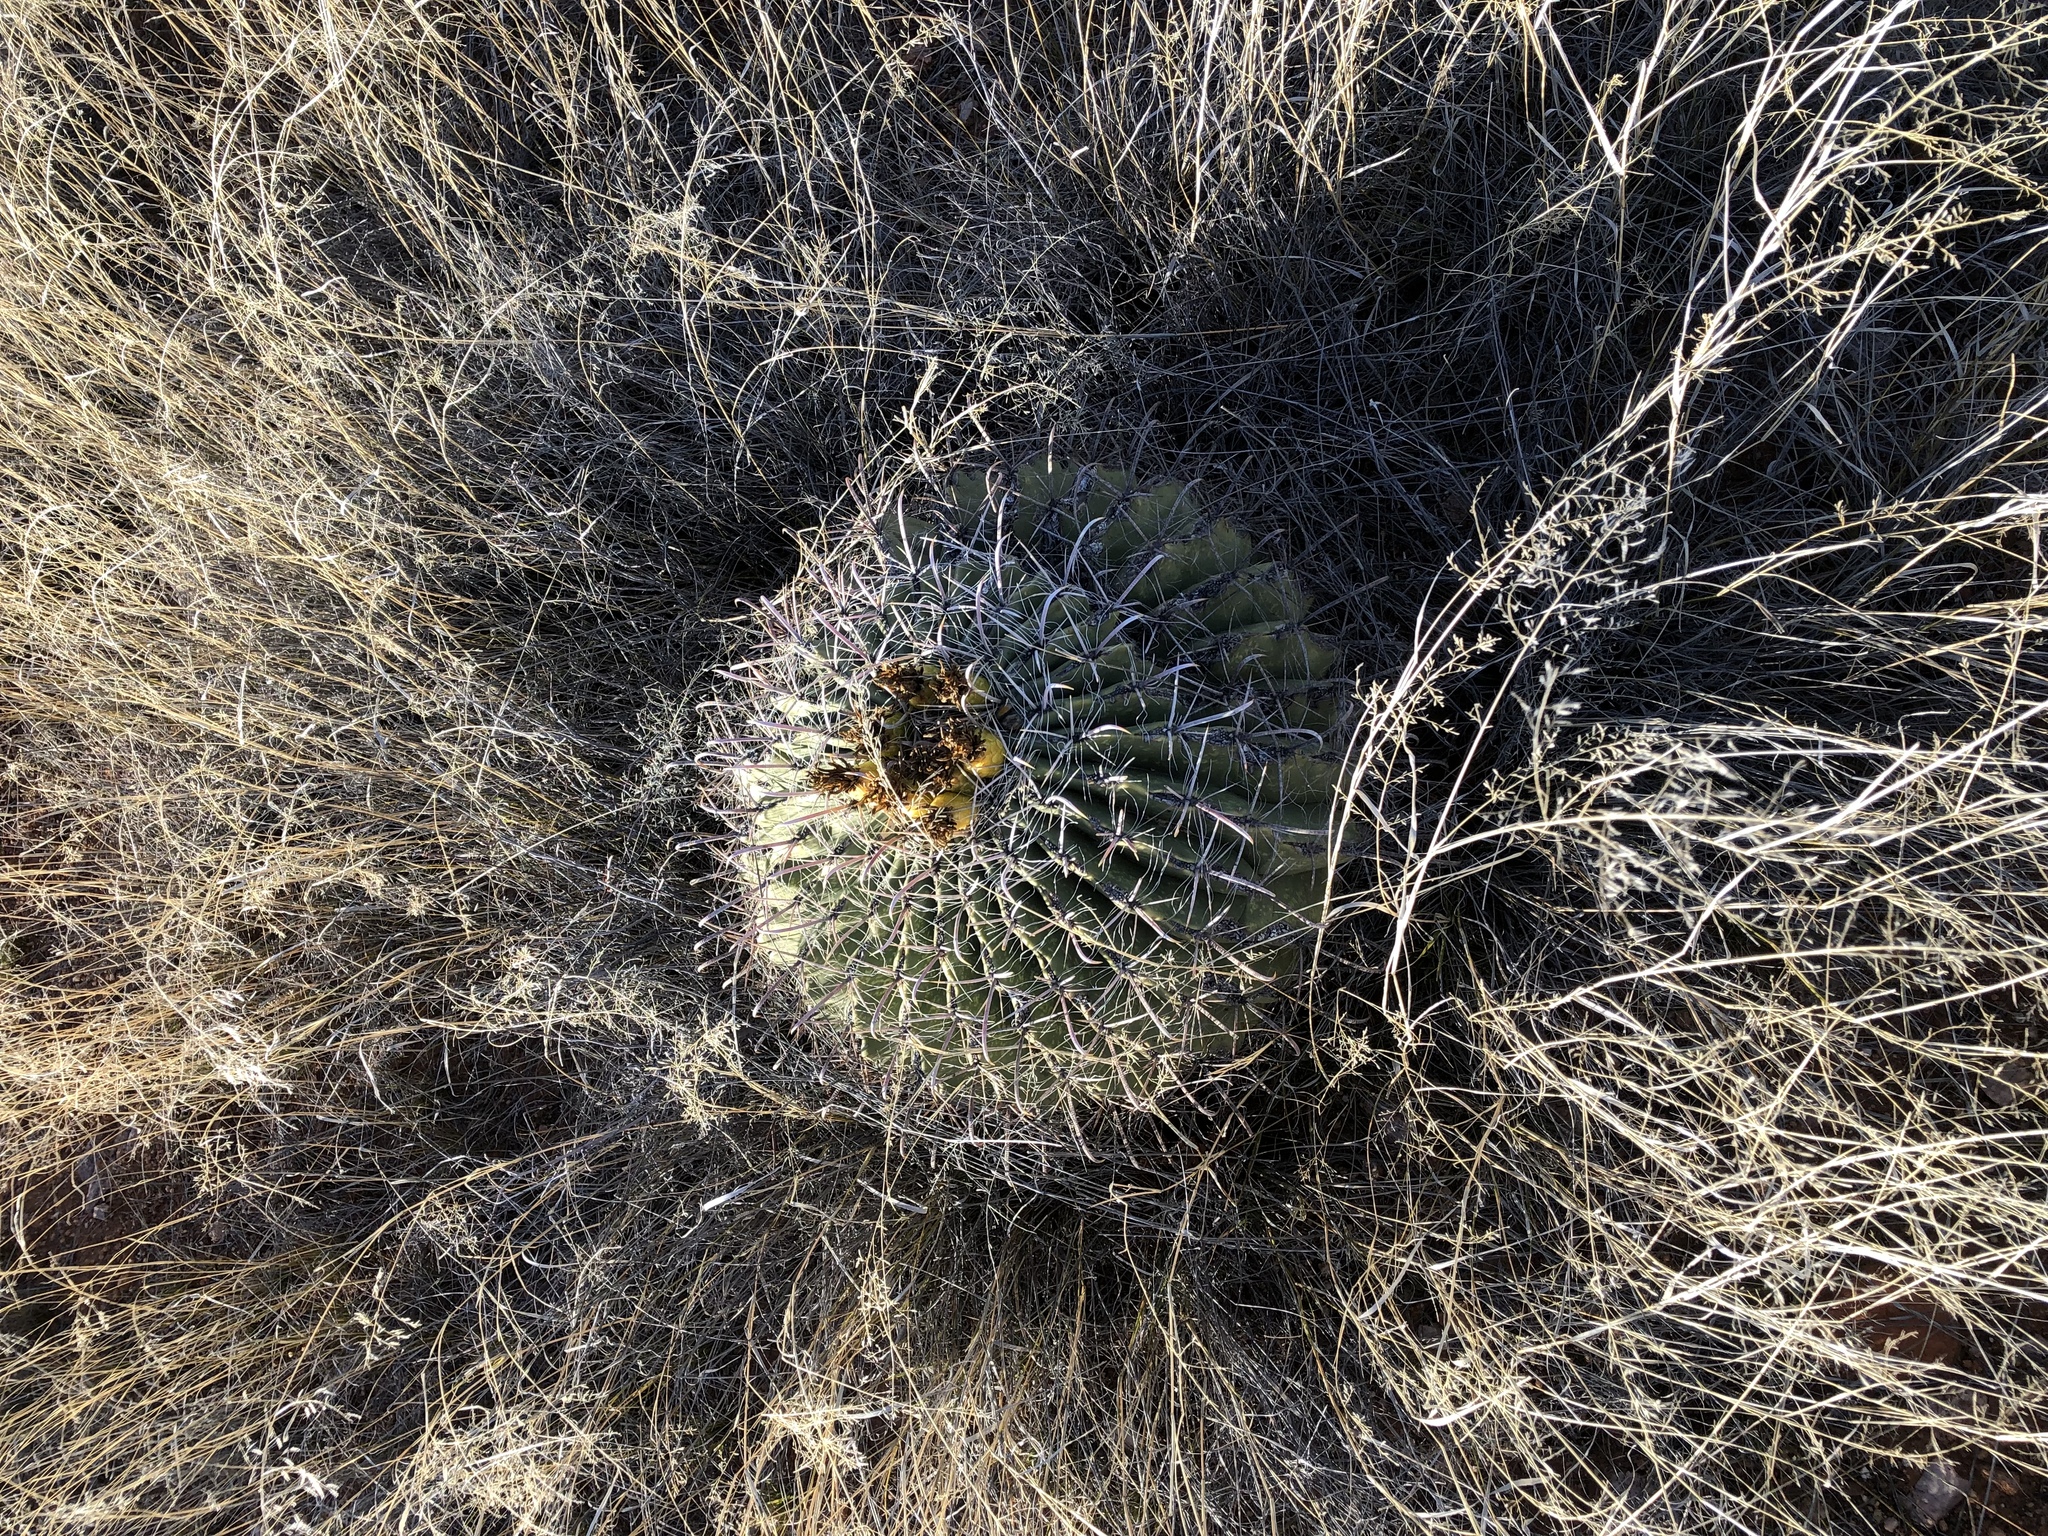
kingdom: Plantae
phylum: Tracheophyta
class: Magnoliopsida
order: Caryophyllales
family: Cactaceae
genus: Ferocactus
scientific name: Ferocactus wislizeni
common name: Candy barrel cactus
